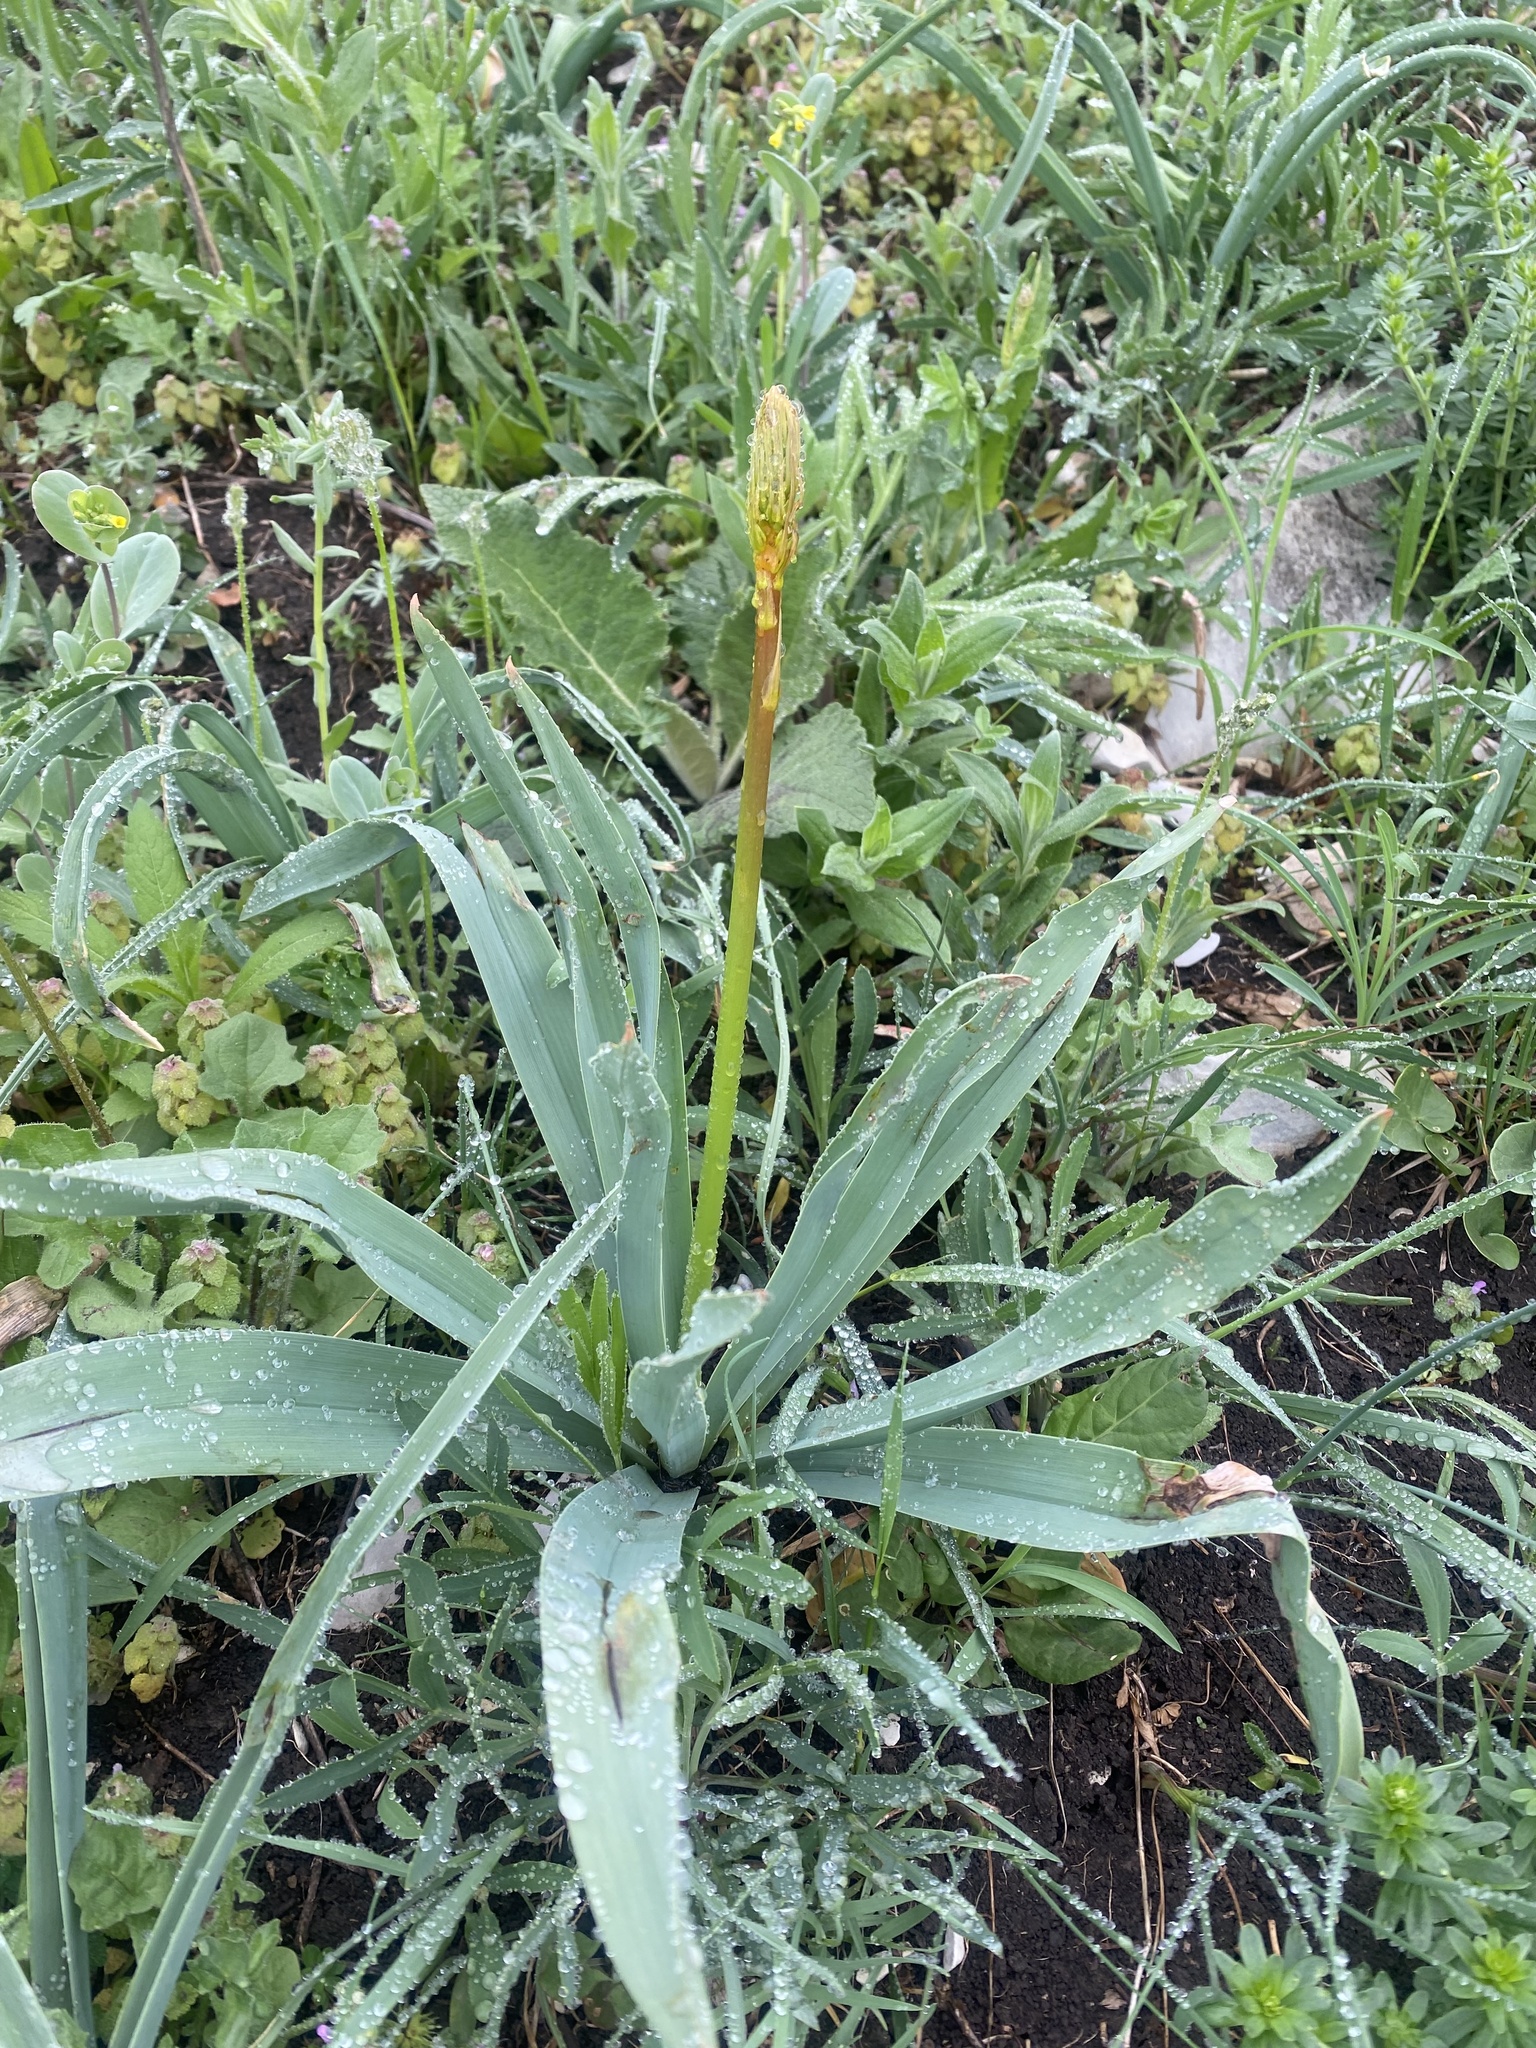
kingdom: Plantae
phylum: Tracheophyta
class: Liliopsida
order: Asparagales
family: Asphodelaceae
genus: Eremurus
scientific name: Eremurus spectabilis
